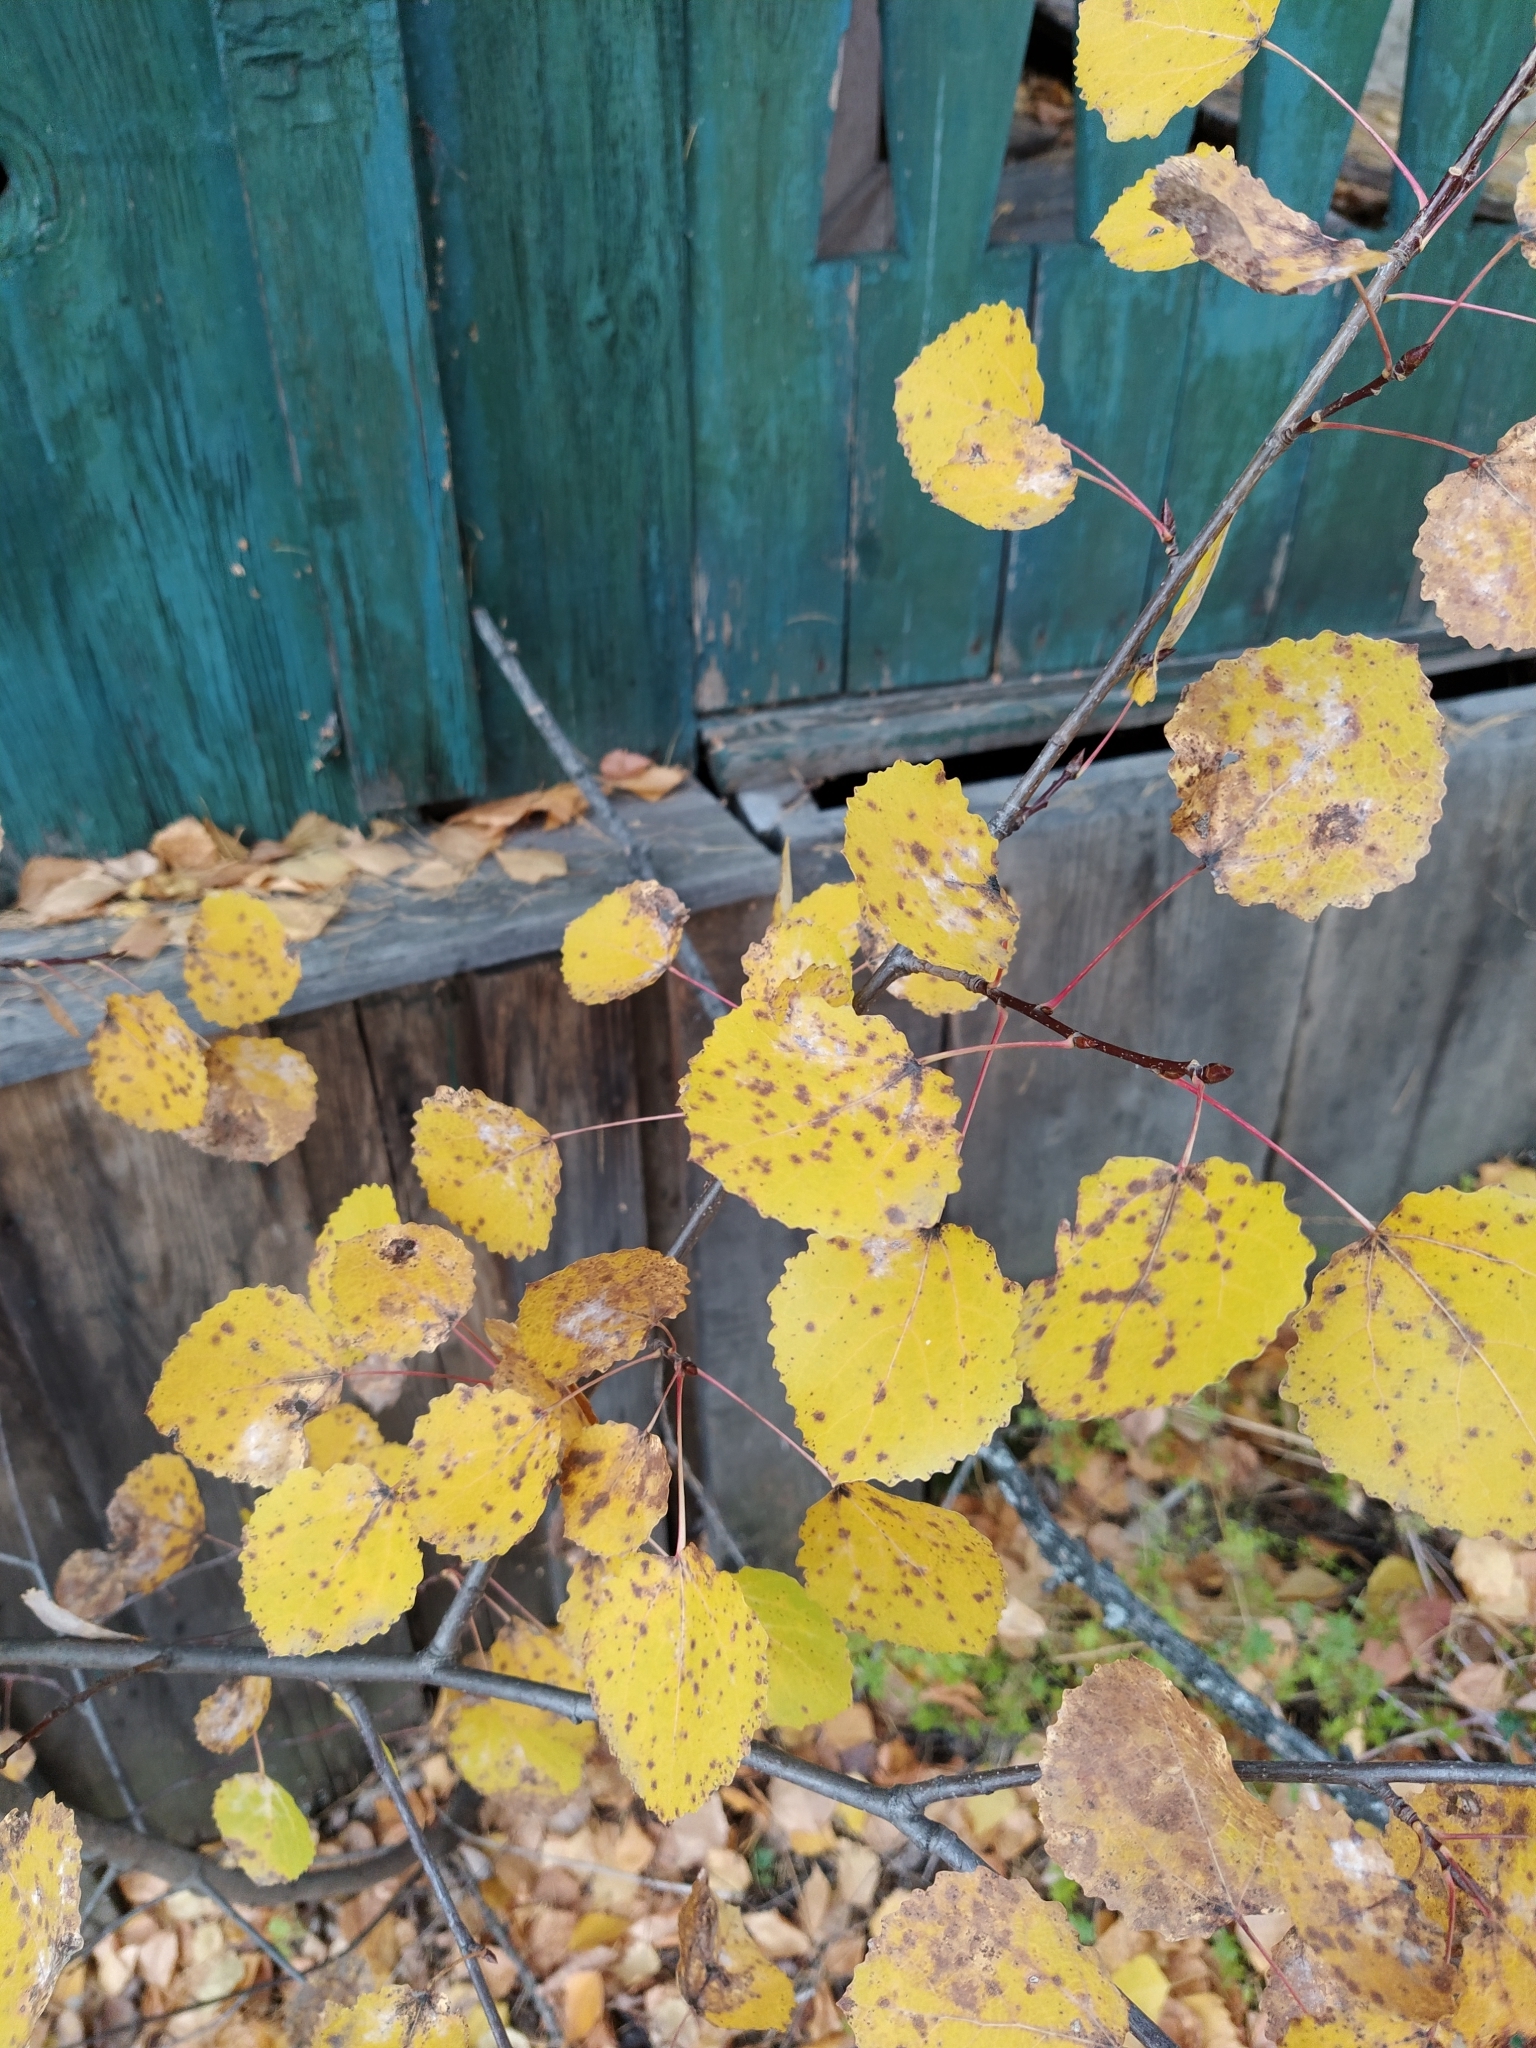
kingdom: Plantae
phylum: Tracheophyta
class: Magnoliopsida
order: Malpighiales
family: Salicaceae
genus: Populus
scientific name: Populus tremula
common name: European aspen
